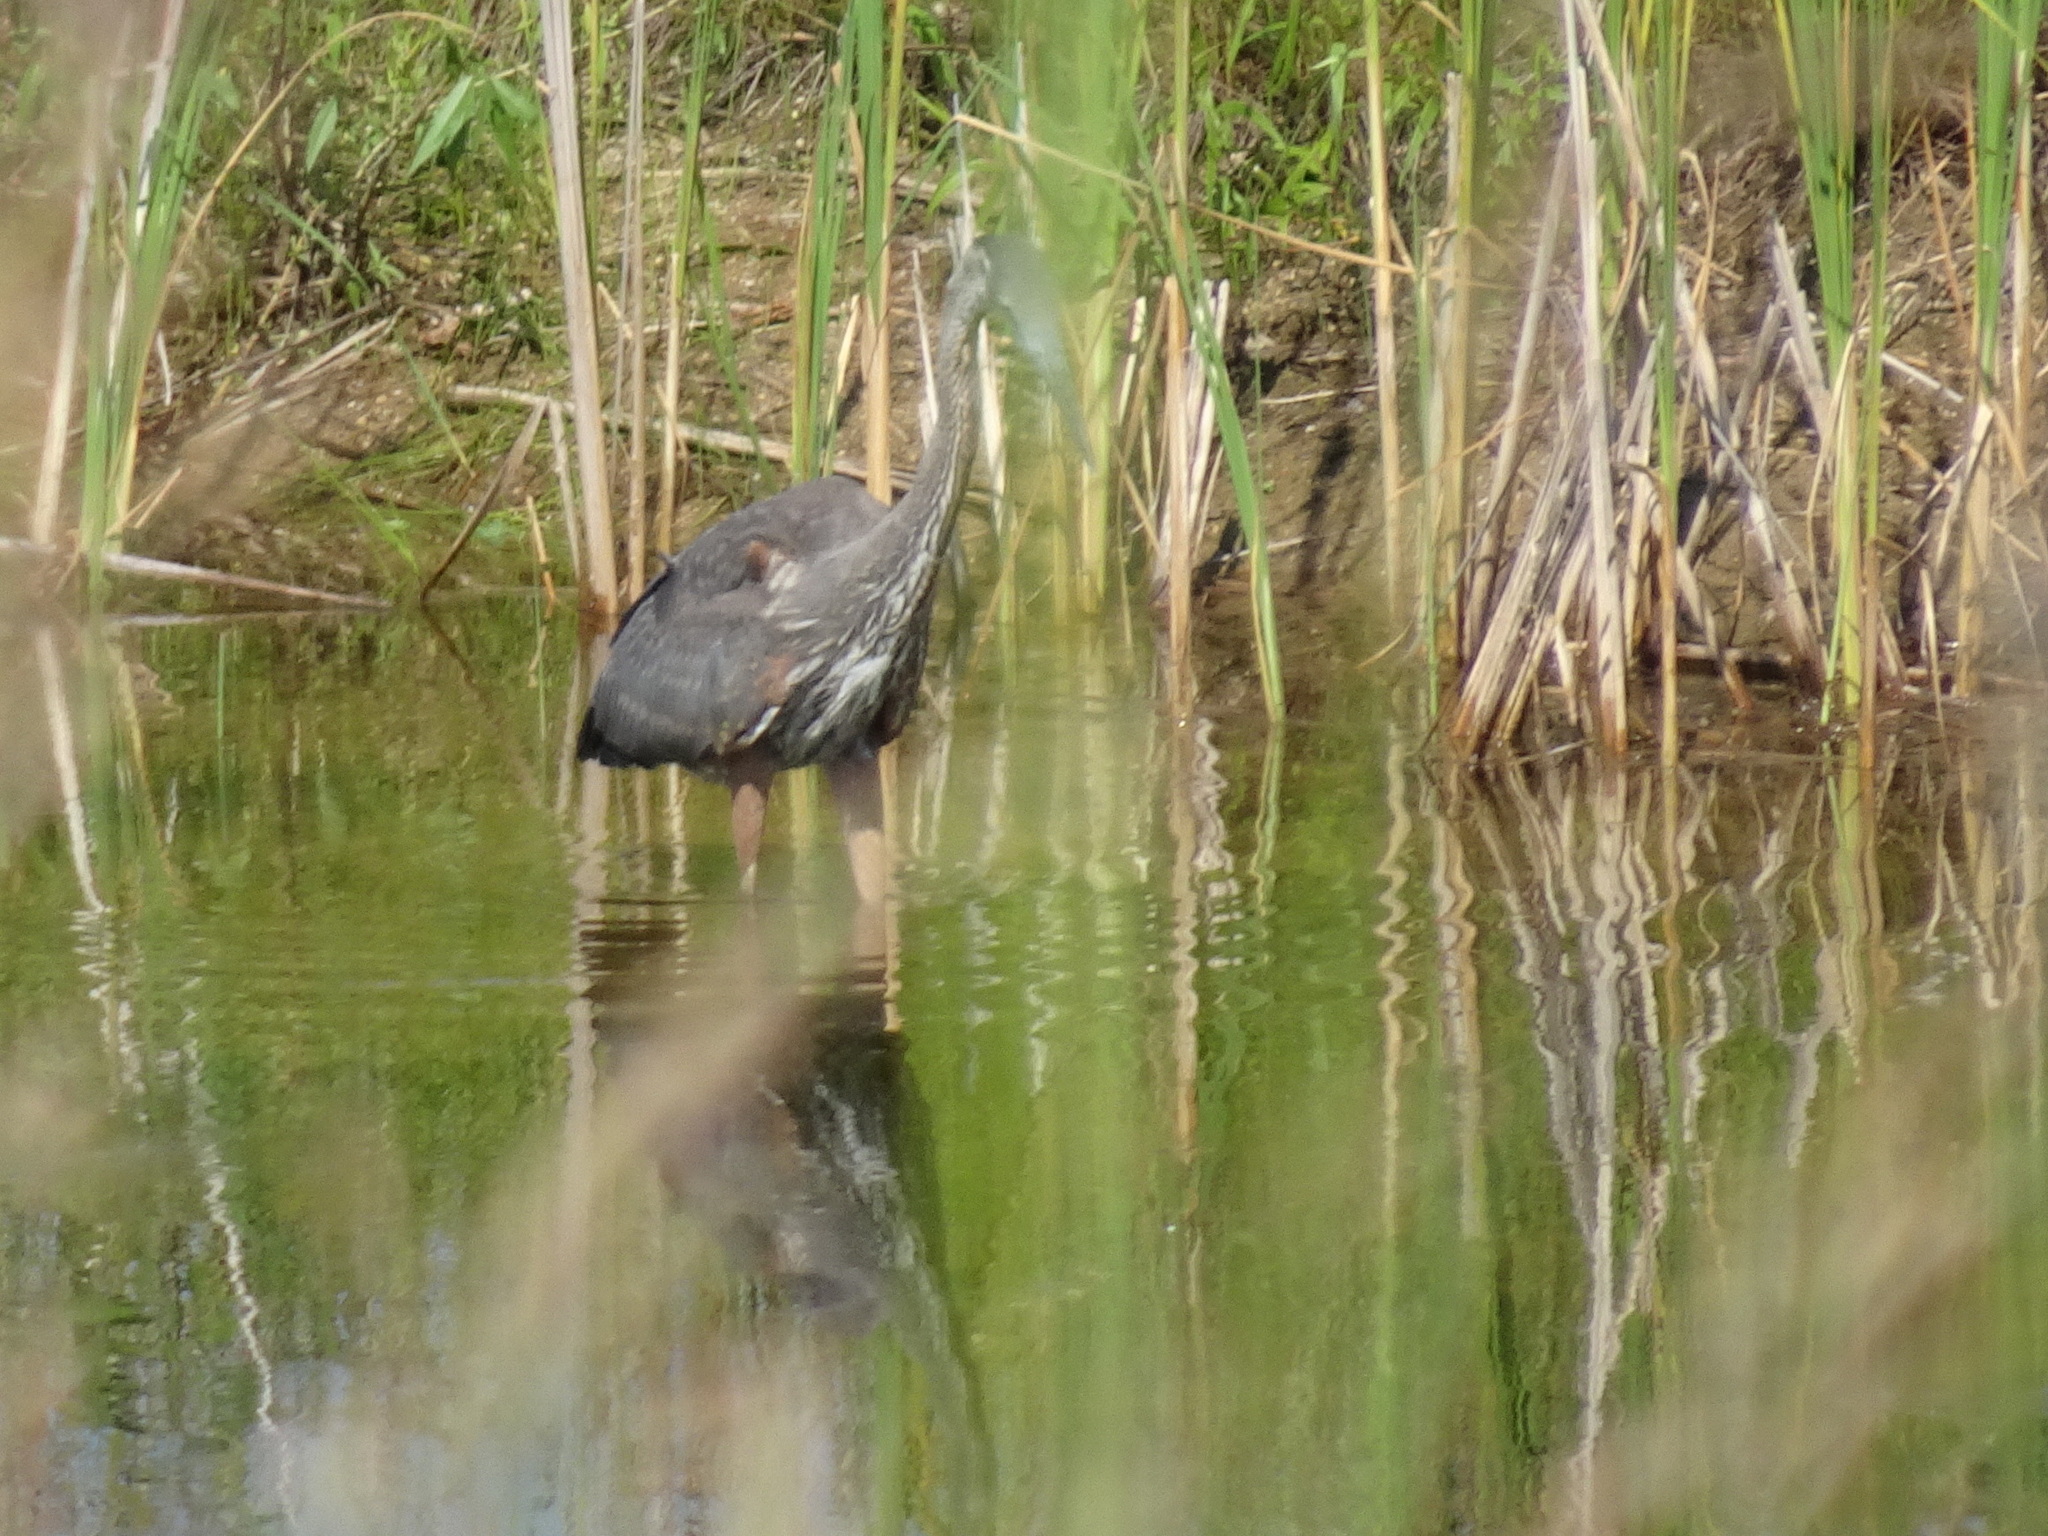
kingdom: Animalia
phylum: Chordata
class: Aves
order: Pelecaniformes
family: Ardeidae
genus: Ardea
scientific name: Ardea herodias
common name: Great blue heron
